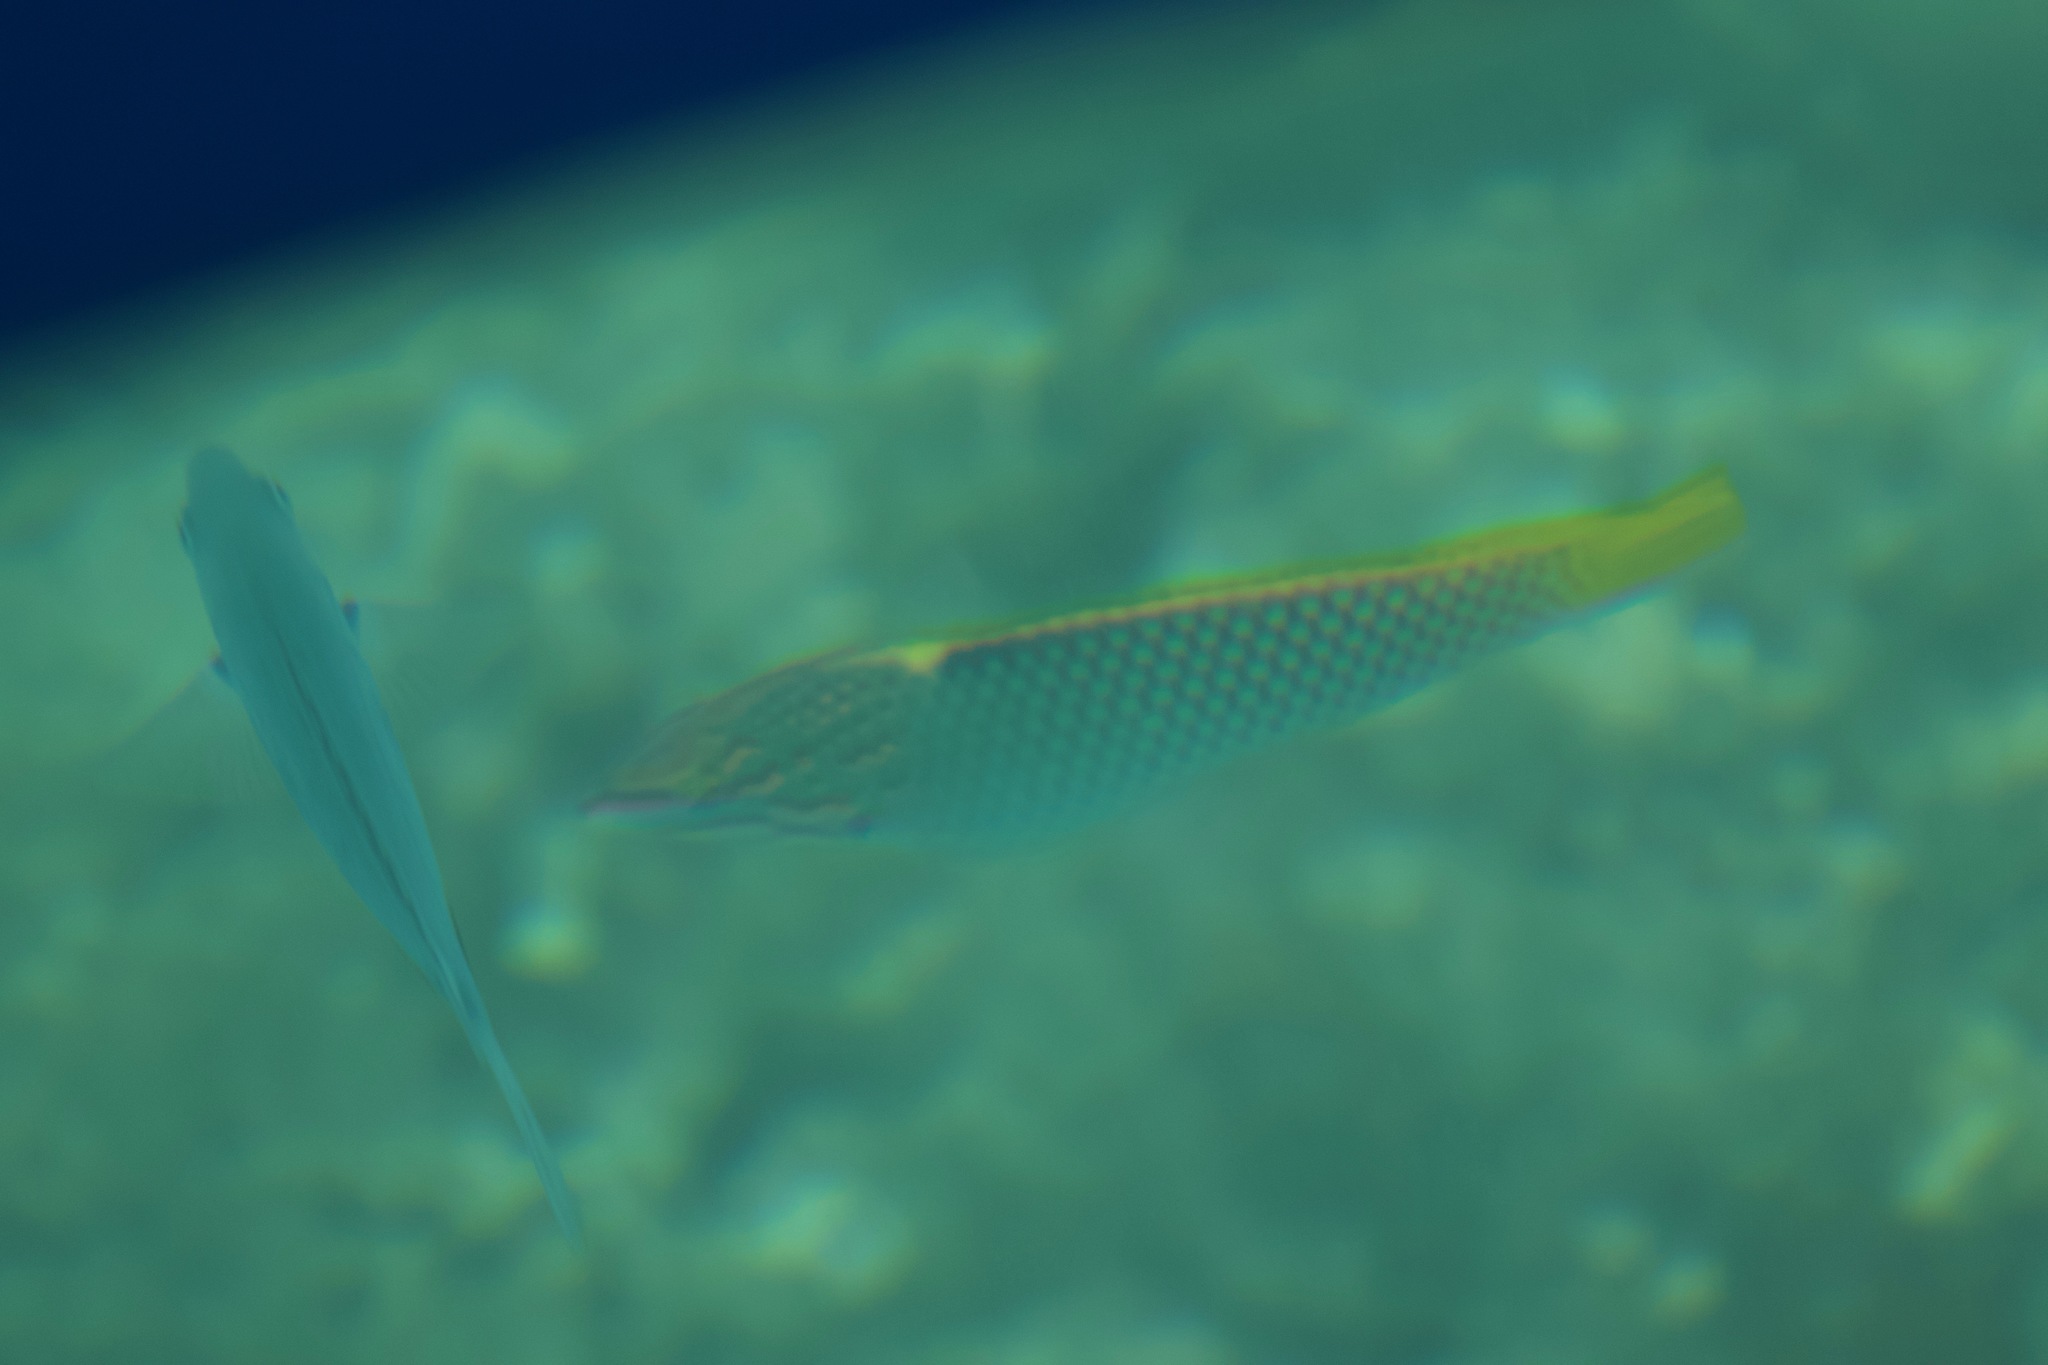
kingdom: Animalia
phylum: Chordata
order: Perciformes
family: Labridae
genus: Halichoeres
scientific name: Halichoeres hortulanus
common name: Checkerboard wrasse
